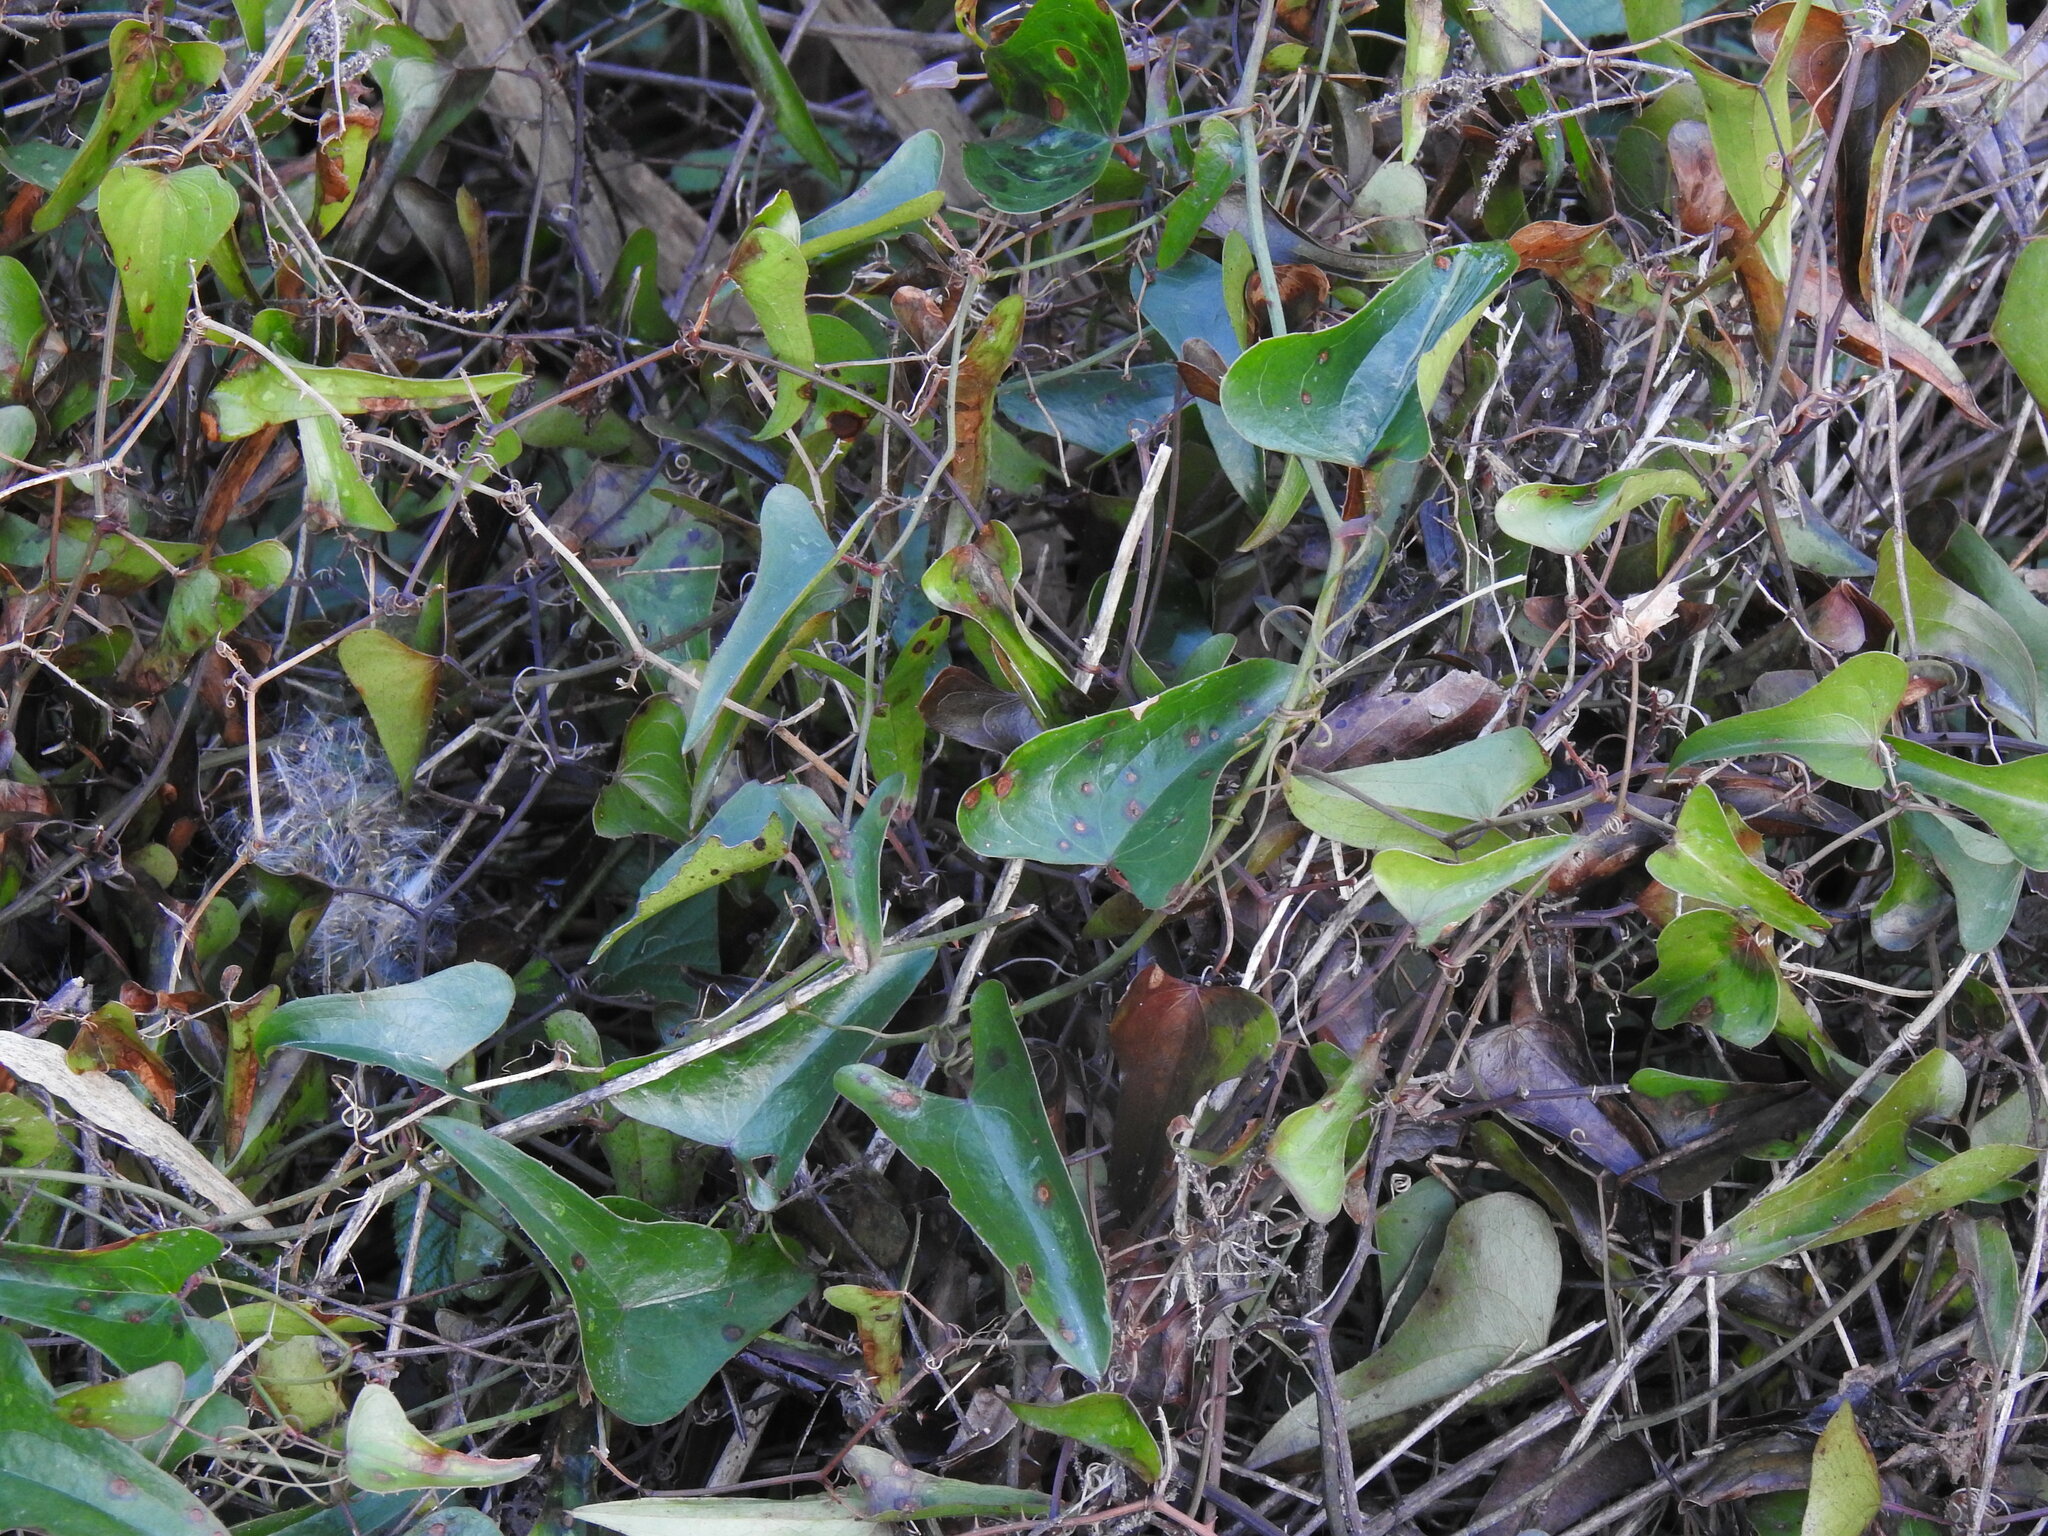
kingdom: Plantae
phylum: Tracheophyta
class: Liliopsida
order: Liliales
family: Smilacaceae
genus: Smilax
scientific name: Smilax aspera
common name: Common smilax
